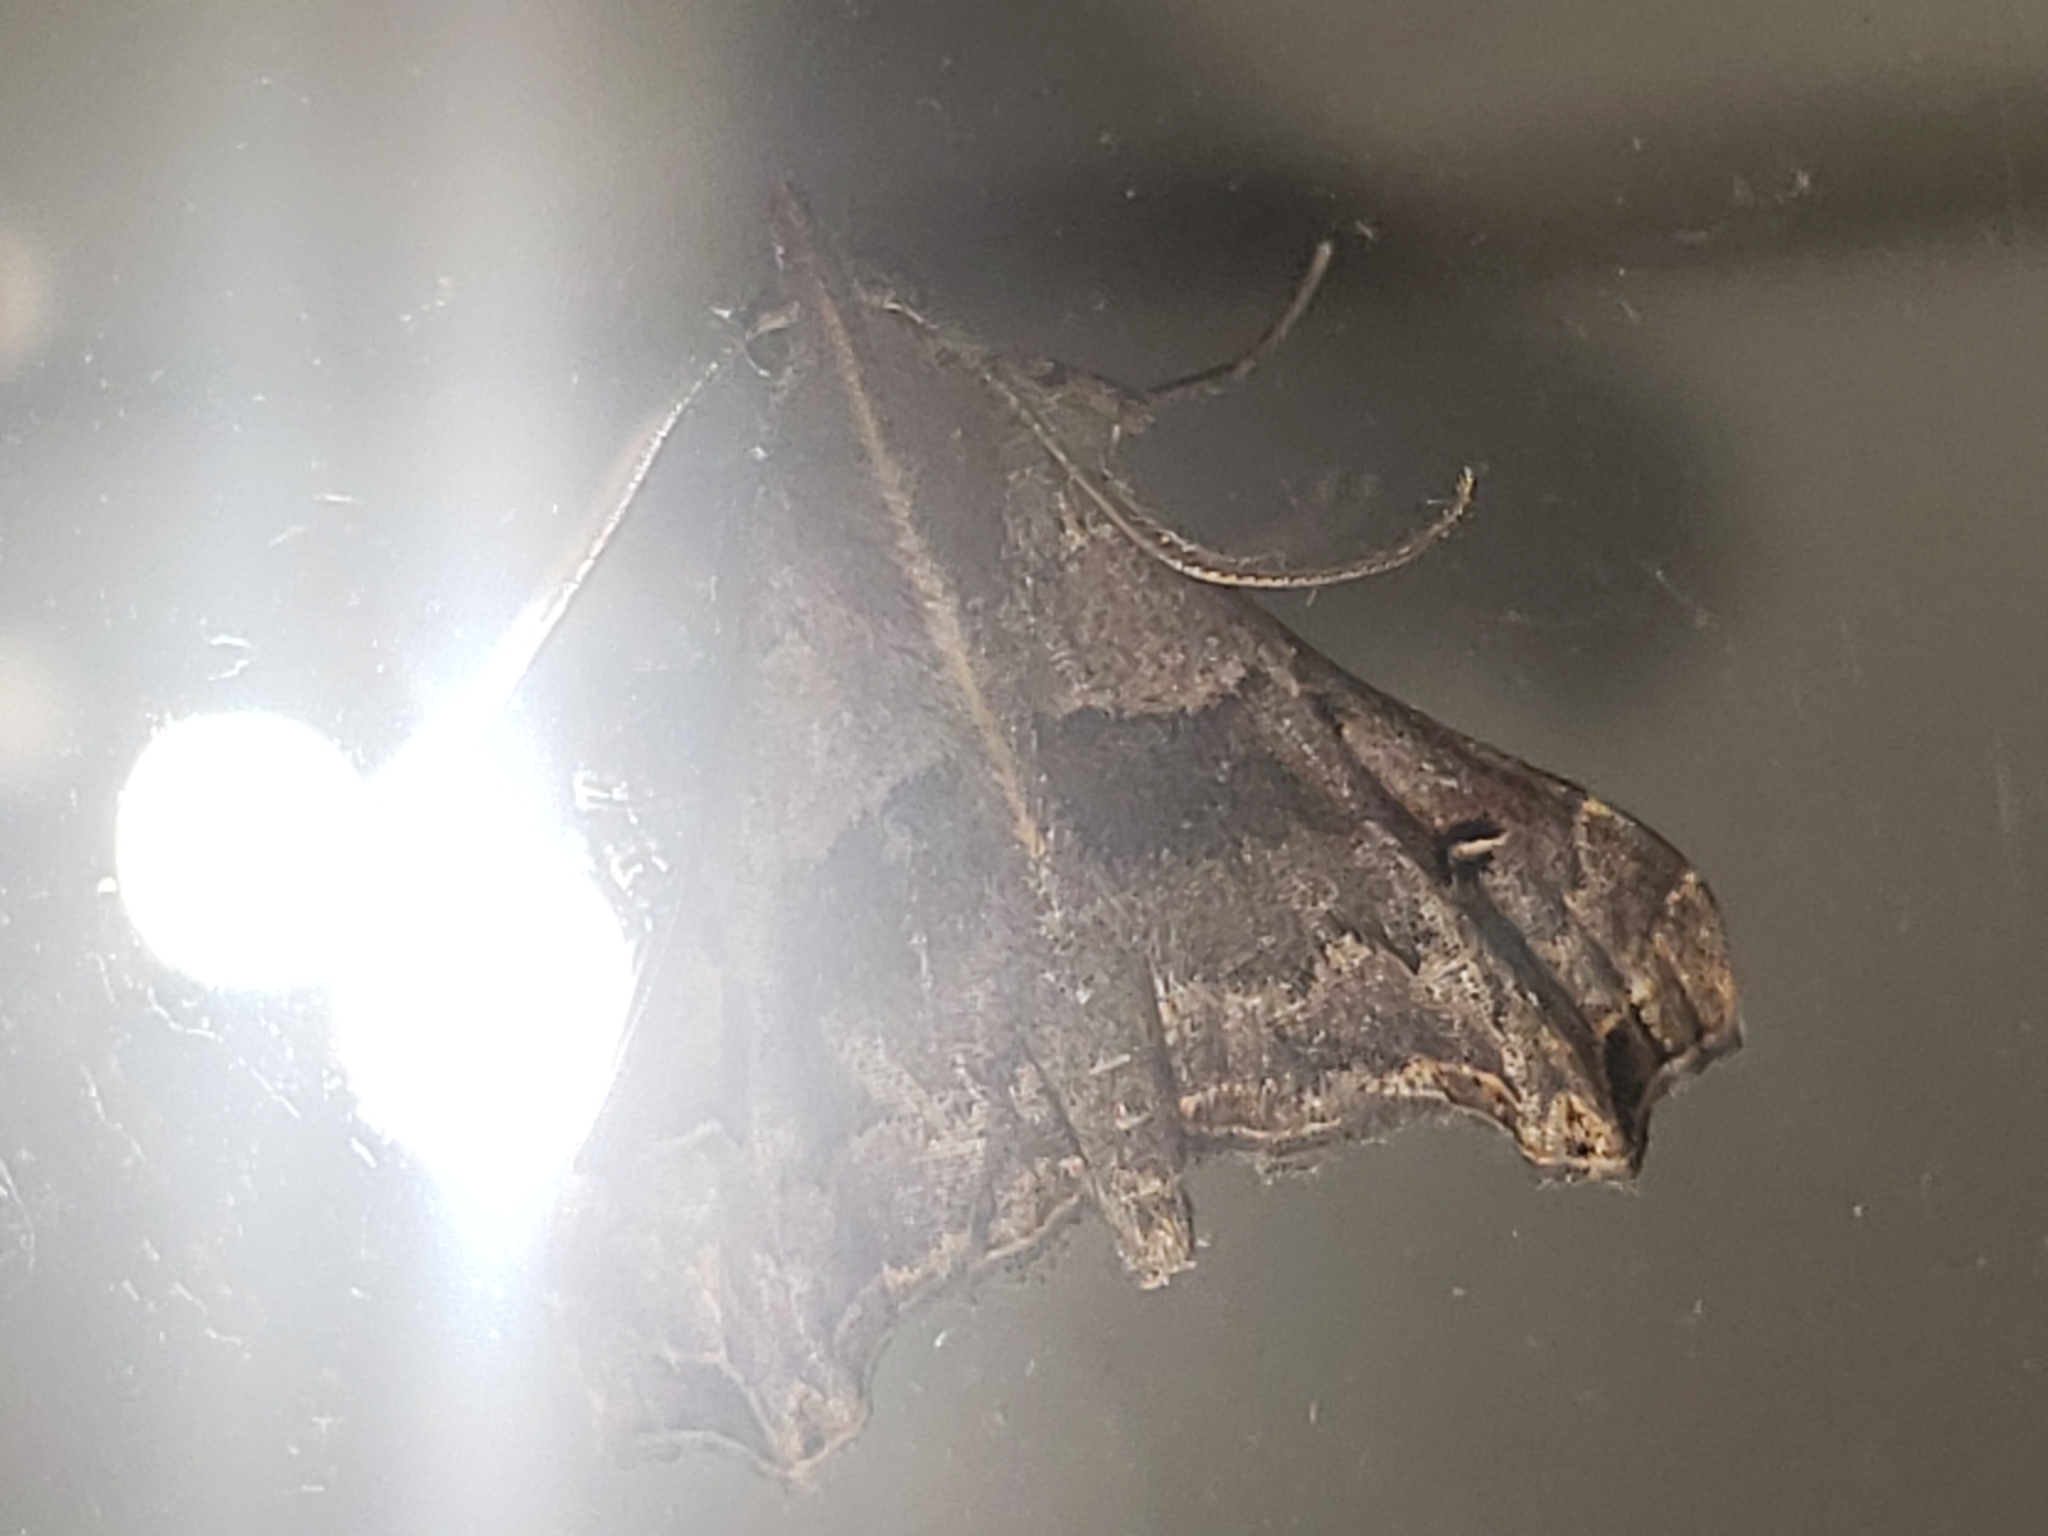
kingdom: Animalia
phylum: Arthropoda
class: Insecta
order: Lepidoptera
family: Erebidae
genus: Palthis
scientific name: Palthis asopialis
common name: Faint-spotted palthis moth
